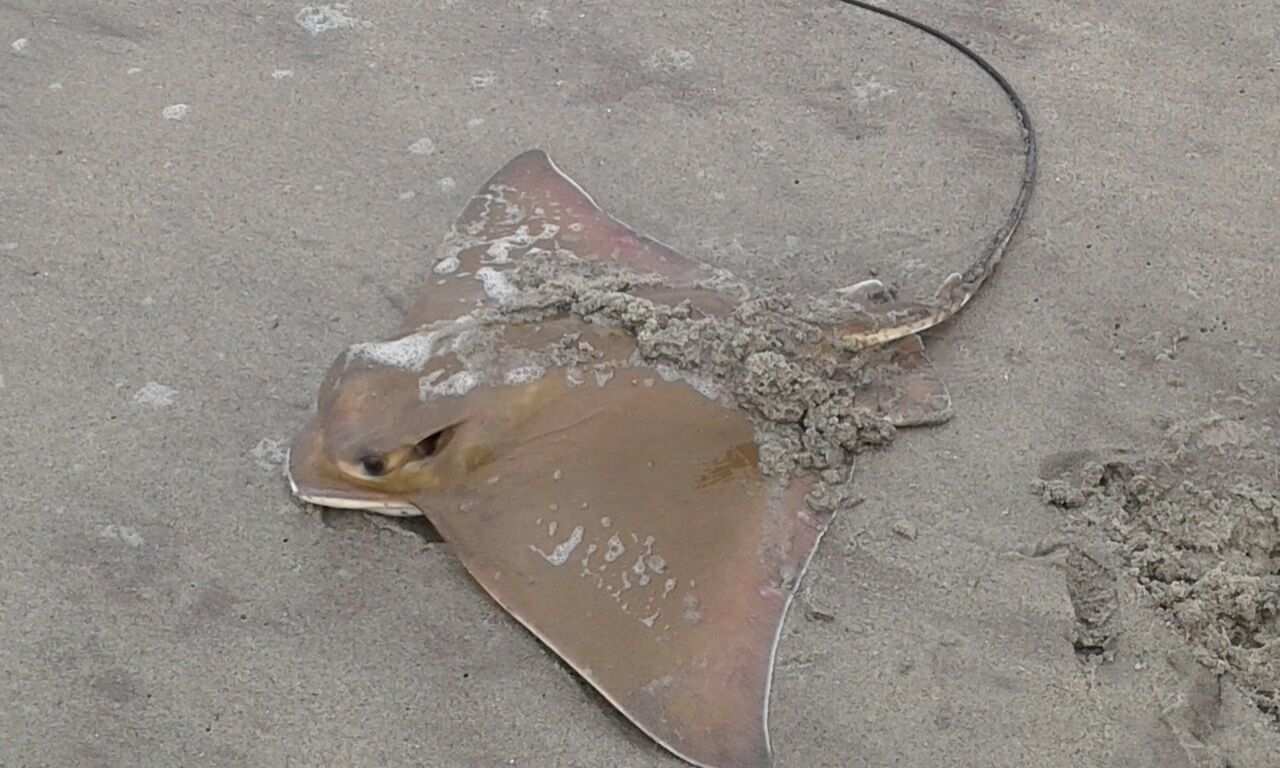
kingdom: Animalia
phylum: Chordata
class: Elasmobranchii
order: Myliobatiformes
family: Myliobatidae
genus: Myliobatis
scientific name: Myliobatis aquila
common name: Eagle ray
